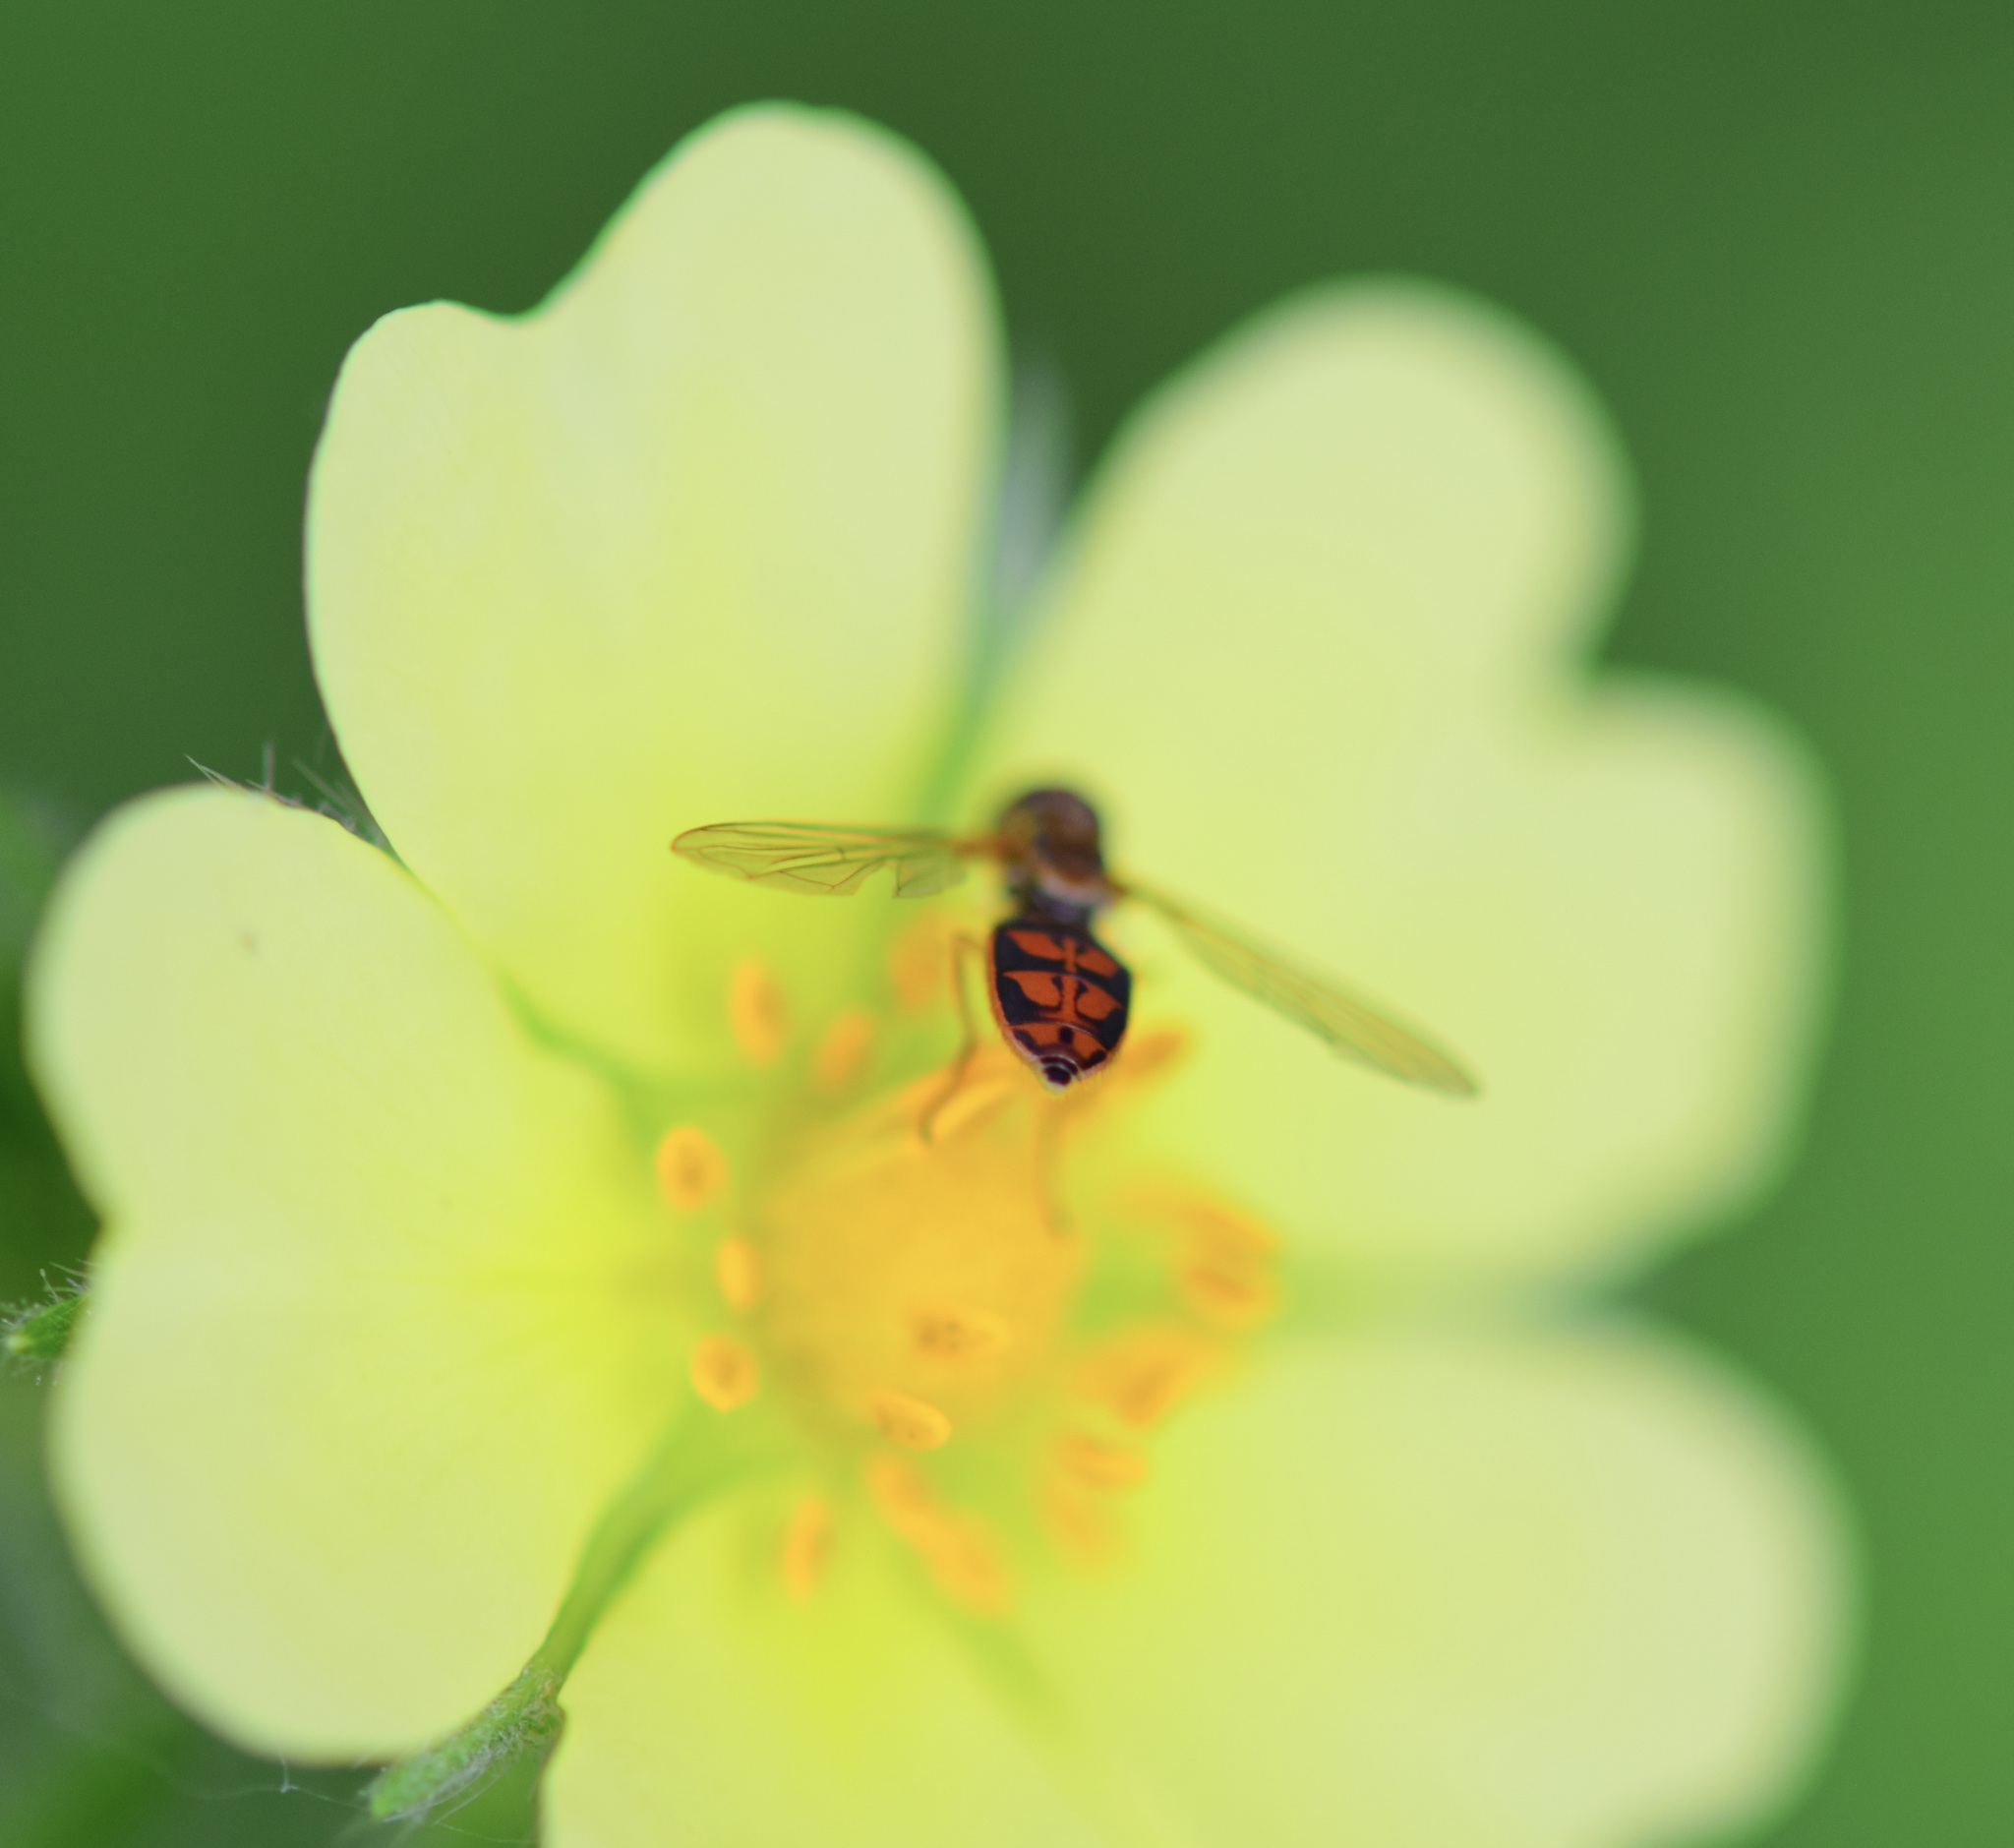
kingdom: Animalia
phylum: Arthropoda
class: Insecta
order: Diptera
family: Syrphidae
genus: Toxomerus
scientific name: Toxomerus marginatus
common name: Syrphid fly
